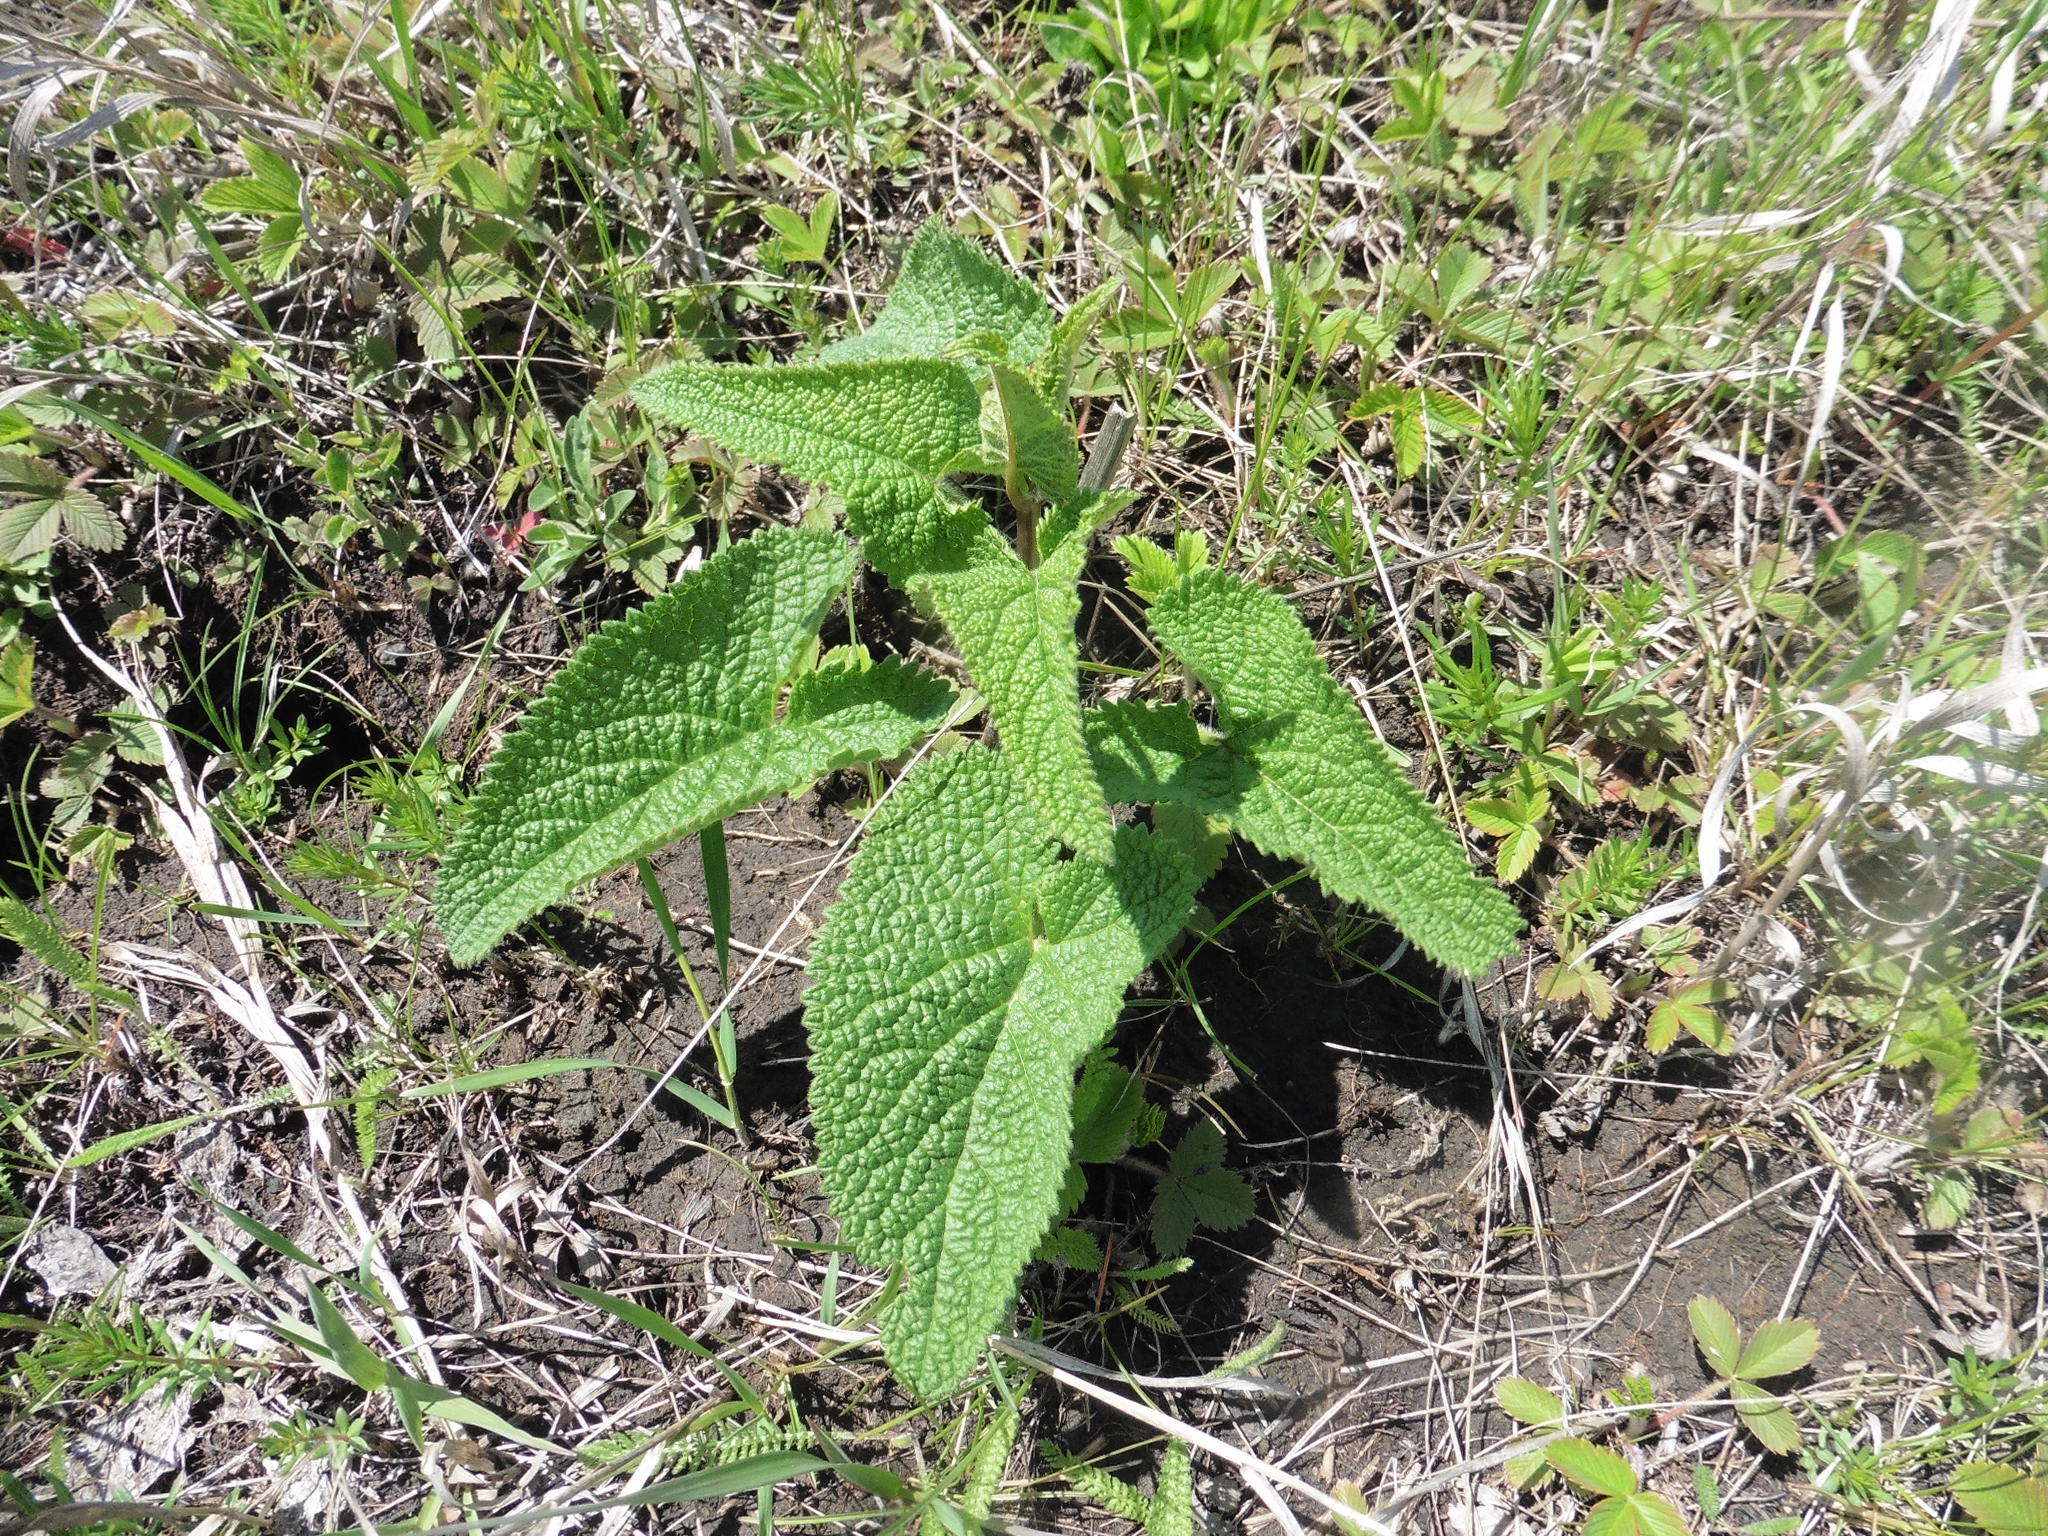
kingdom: Plantae
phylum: Tracheophyta
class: Magnoliopsida
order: Lamiales
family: Lamiaceae
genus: Phlomoides
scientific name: Phlomoides tuberosa
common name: Tuberous jerusalem sage
